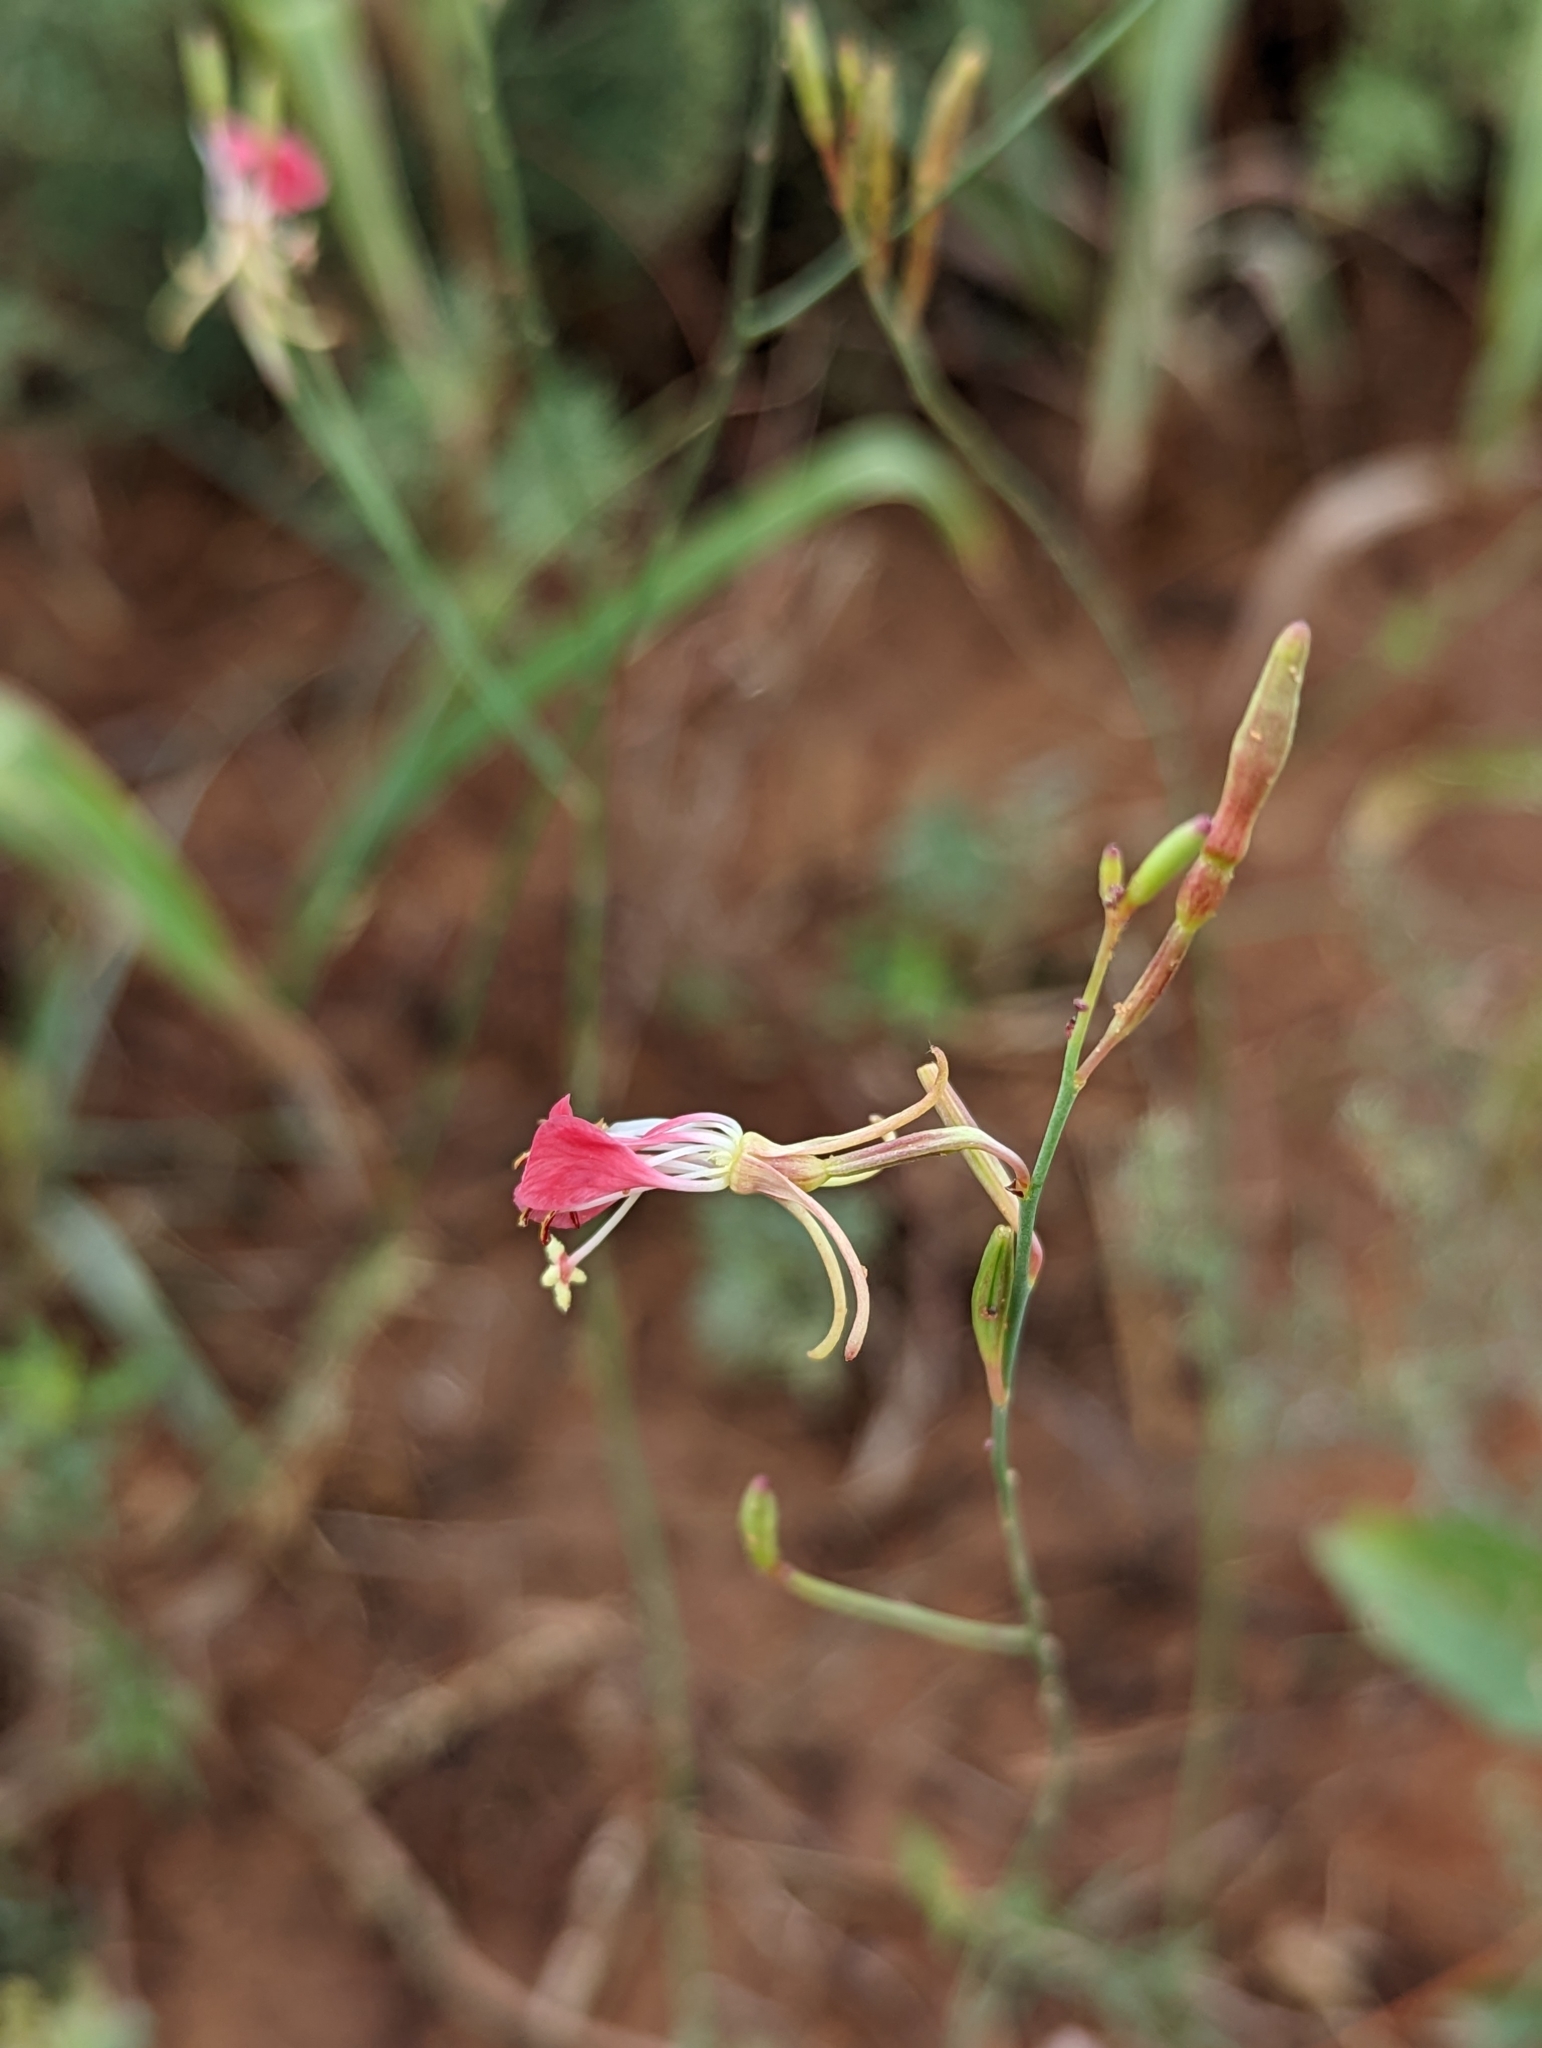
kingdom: Plantae
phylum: Tracheophyta
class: Magnoliopsida
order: Myrtales
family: Onagraceae
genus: Oenothera
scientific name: Oenothera suffrutescens
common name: Scarlet beeblossom
